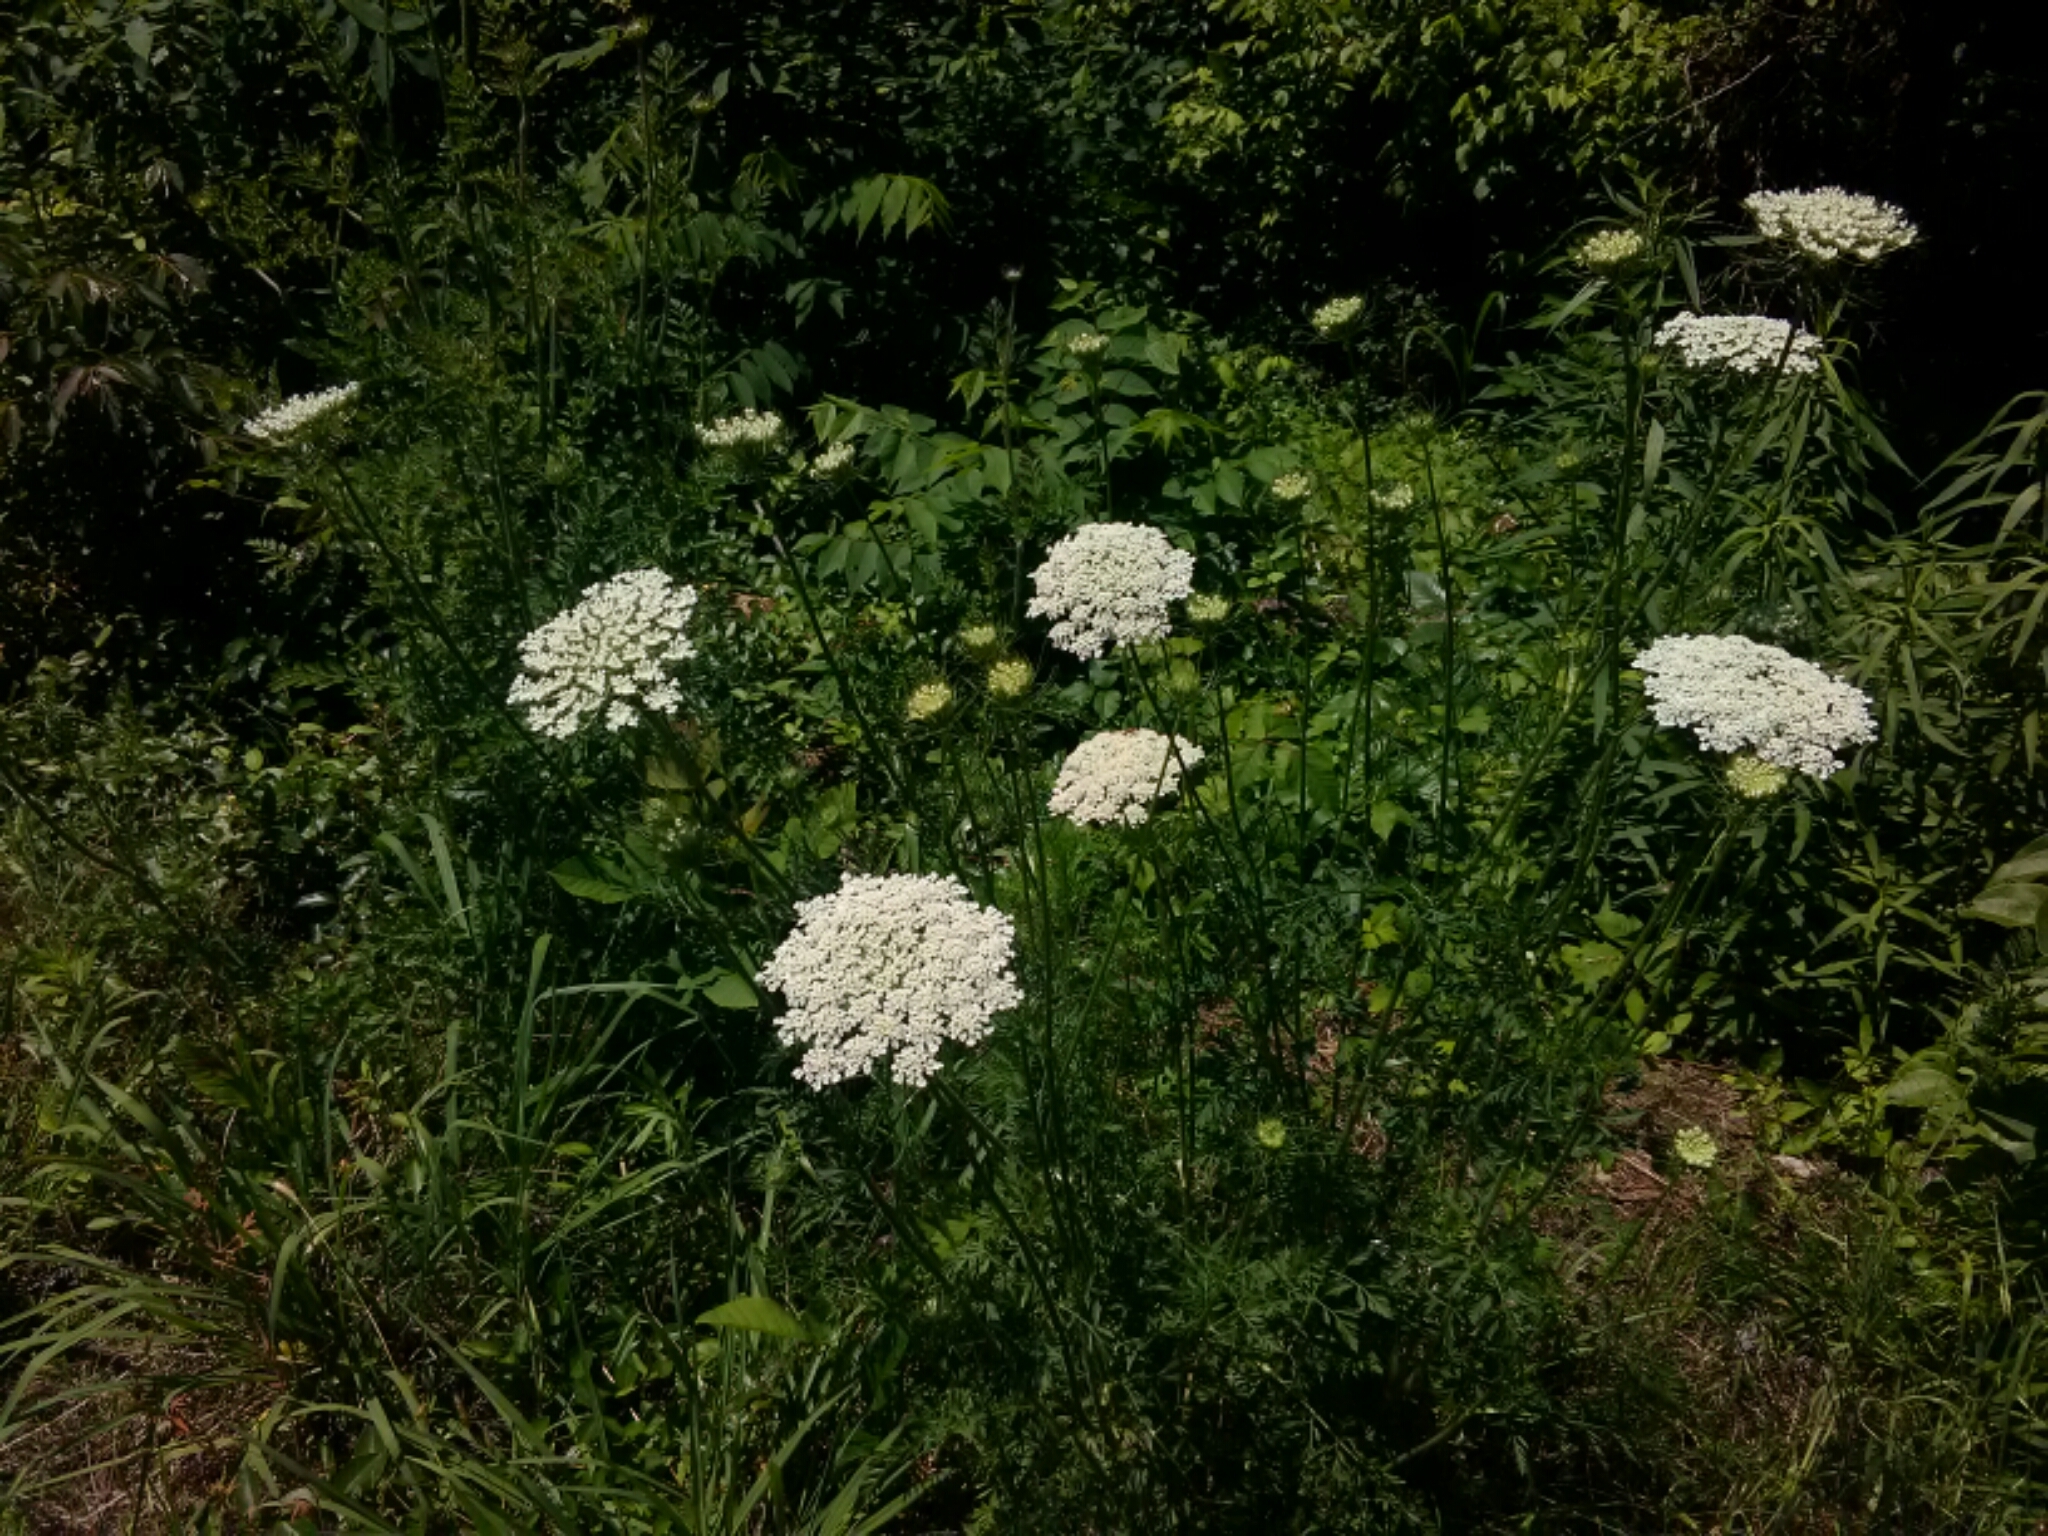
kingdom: Plantae
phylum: Tracheophyta
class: Magnoliopsida
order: Apiales
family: Apiaceae
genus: Daucus
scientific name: Daucus carota
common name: Wild carrot
